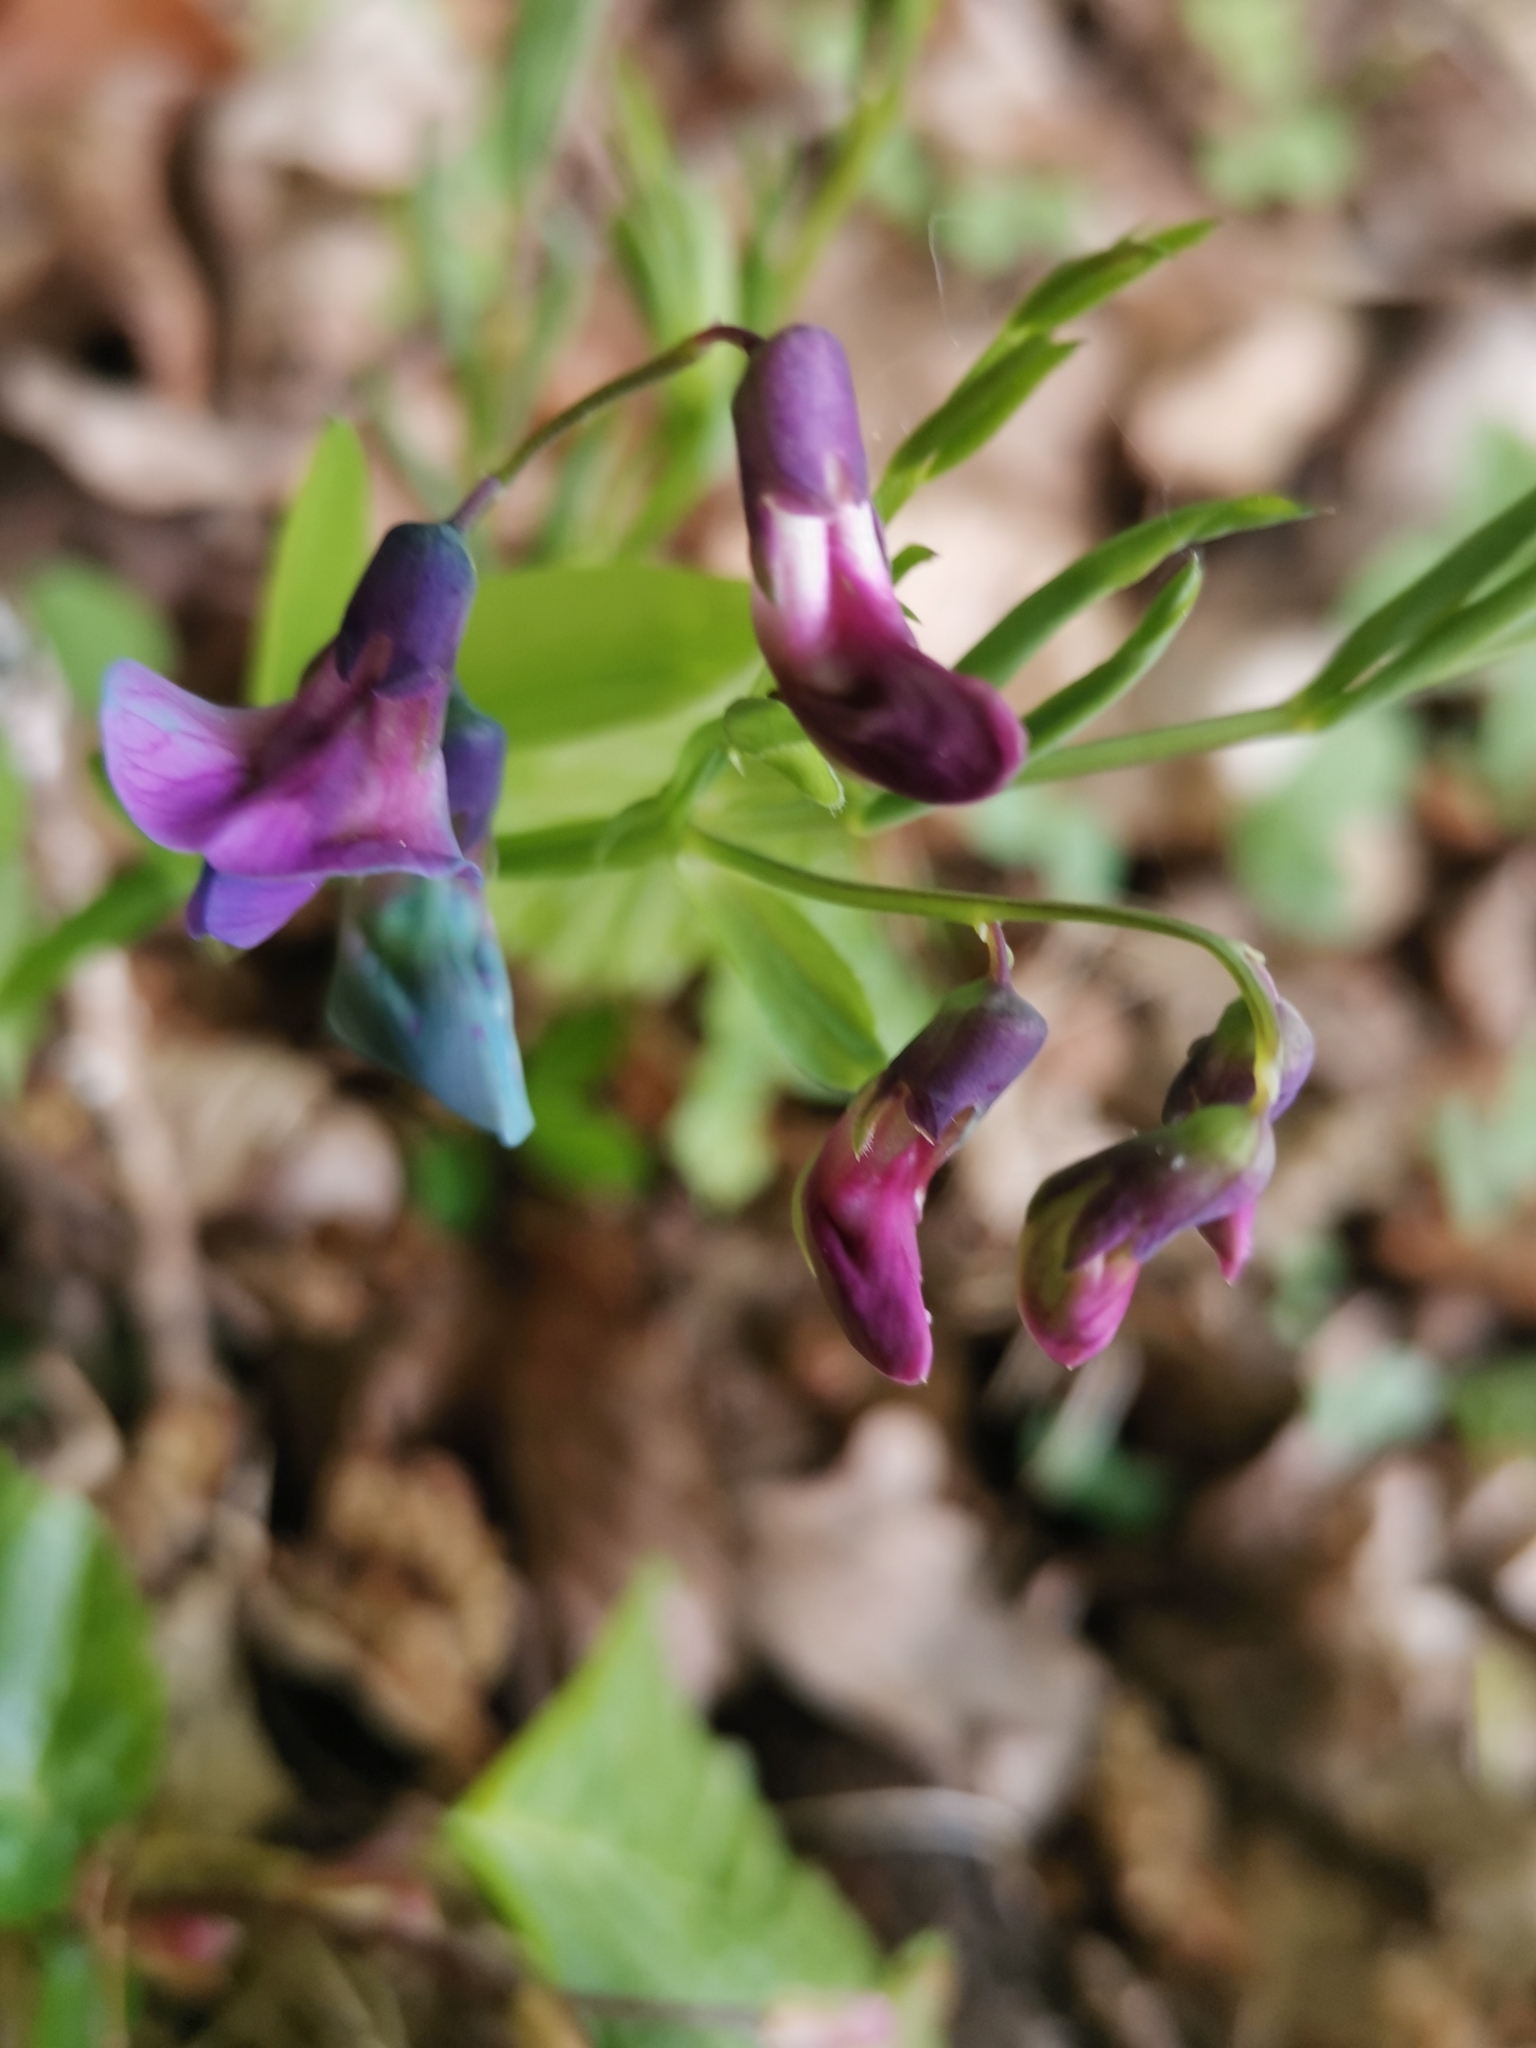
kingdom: Plantae
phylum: Tracheophyta
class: Magnoliopsida
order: Fabales
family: Fabaceae
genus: Lathyrus
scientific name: Lathyrus linifolius
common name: Bitter-vetch
